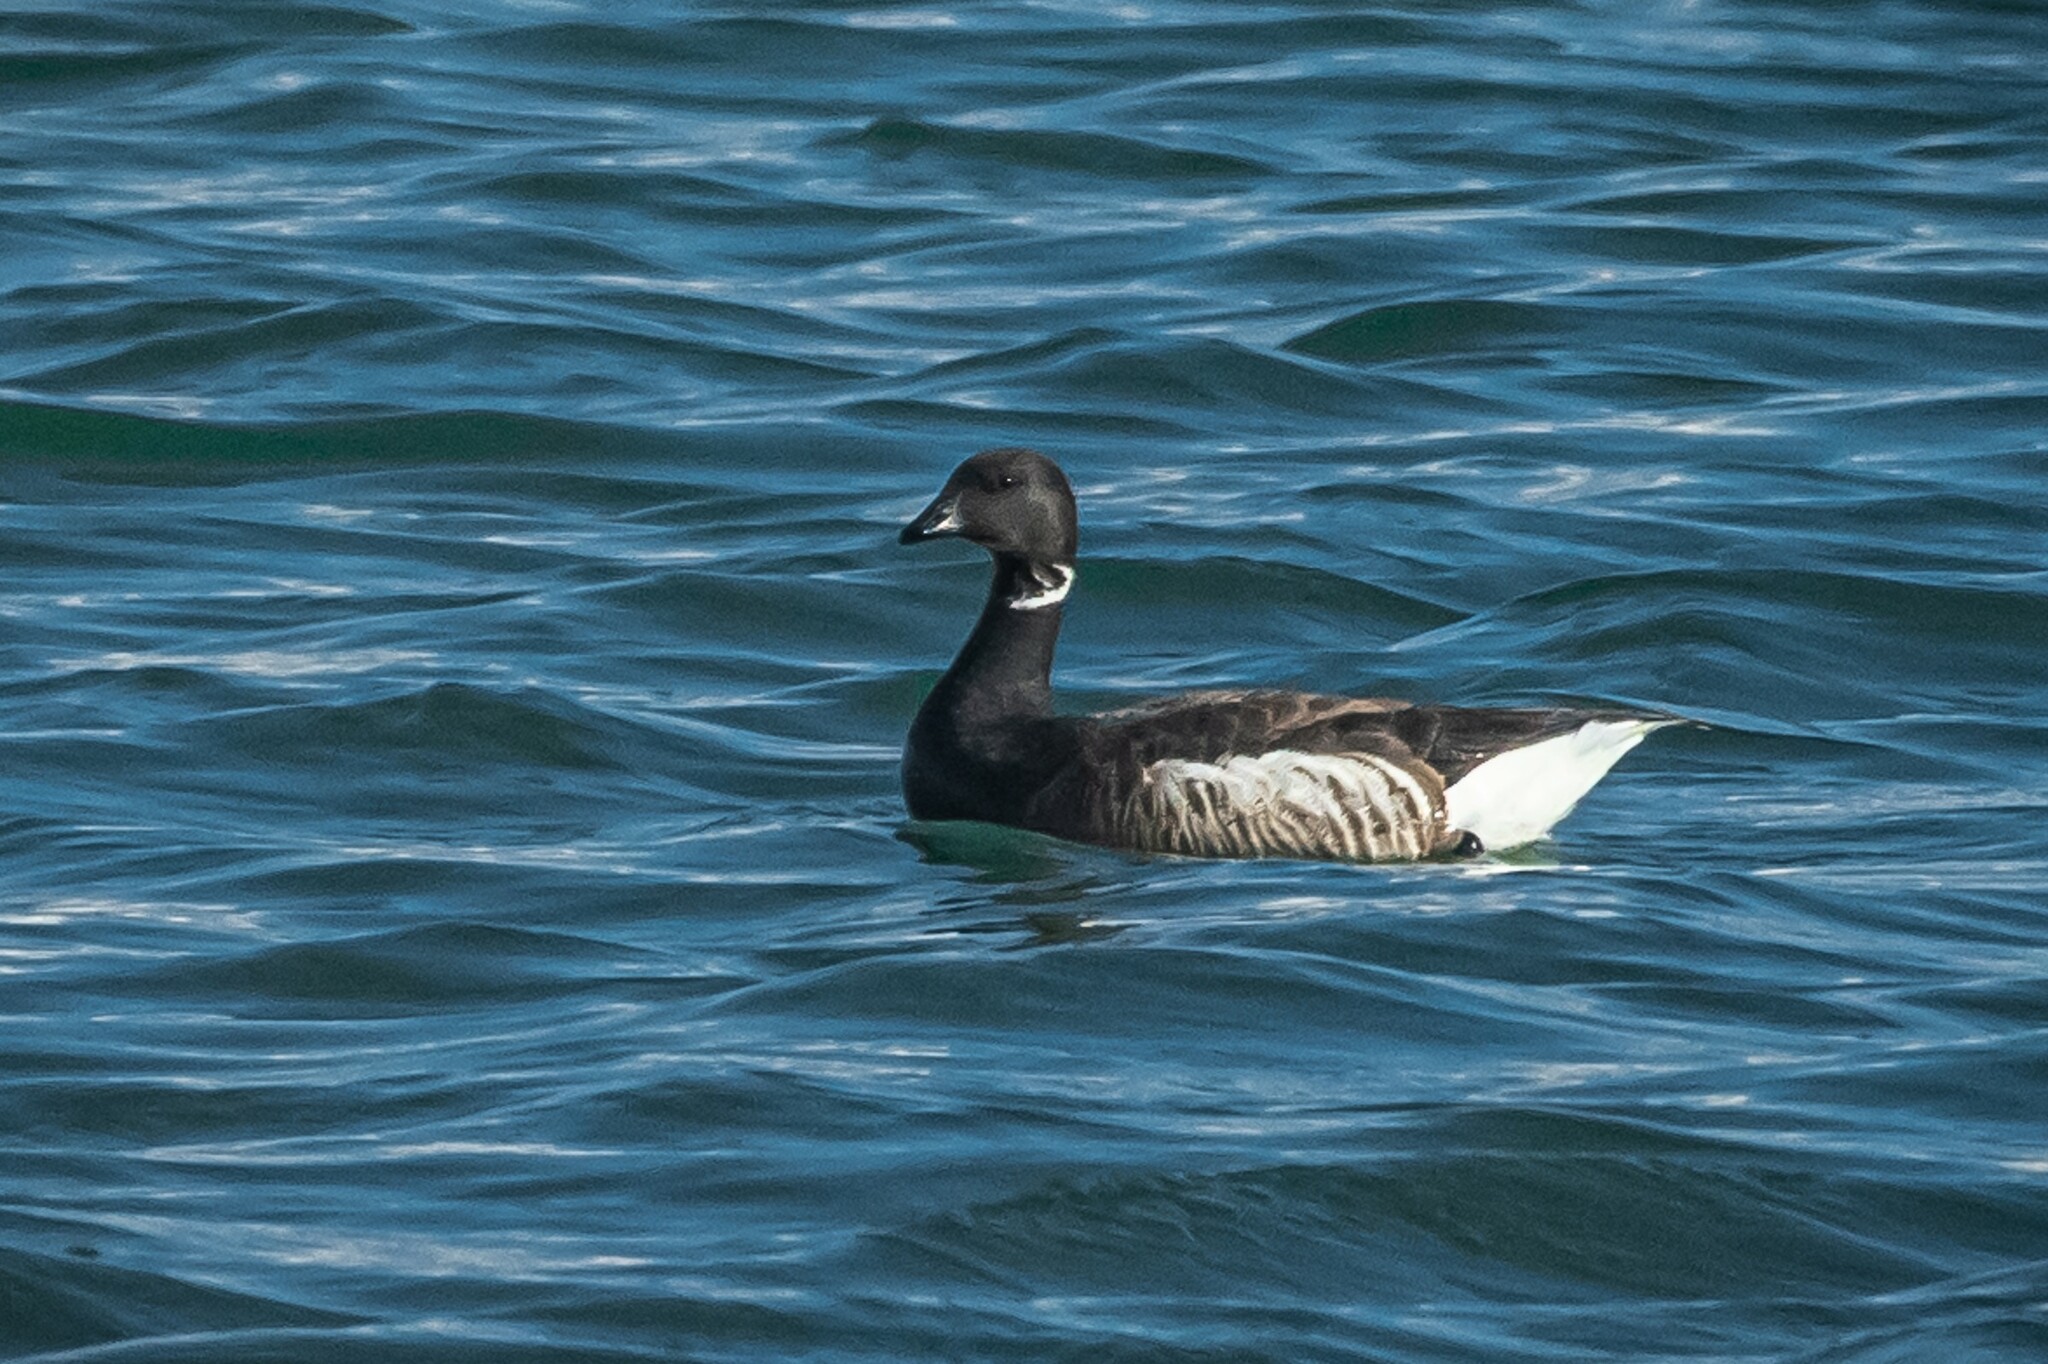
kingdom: Animalia
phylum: Chordata
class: Aves
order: Anseriformes
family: Anatidae
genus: Branta
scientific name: Branta bernicla
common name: Brant goose
